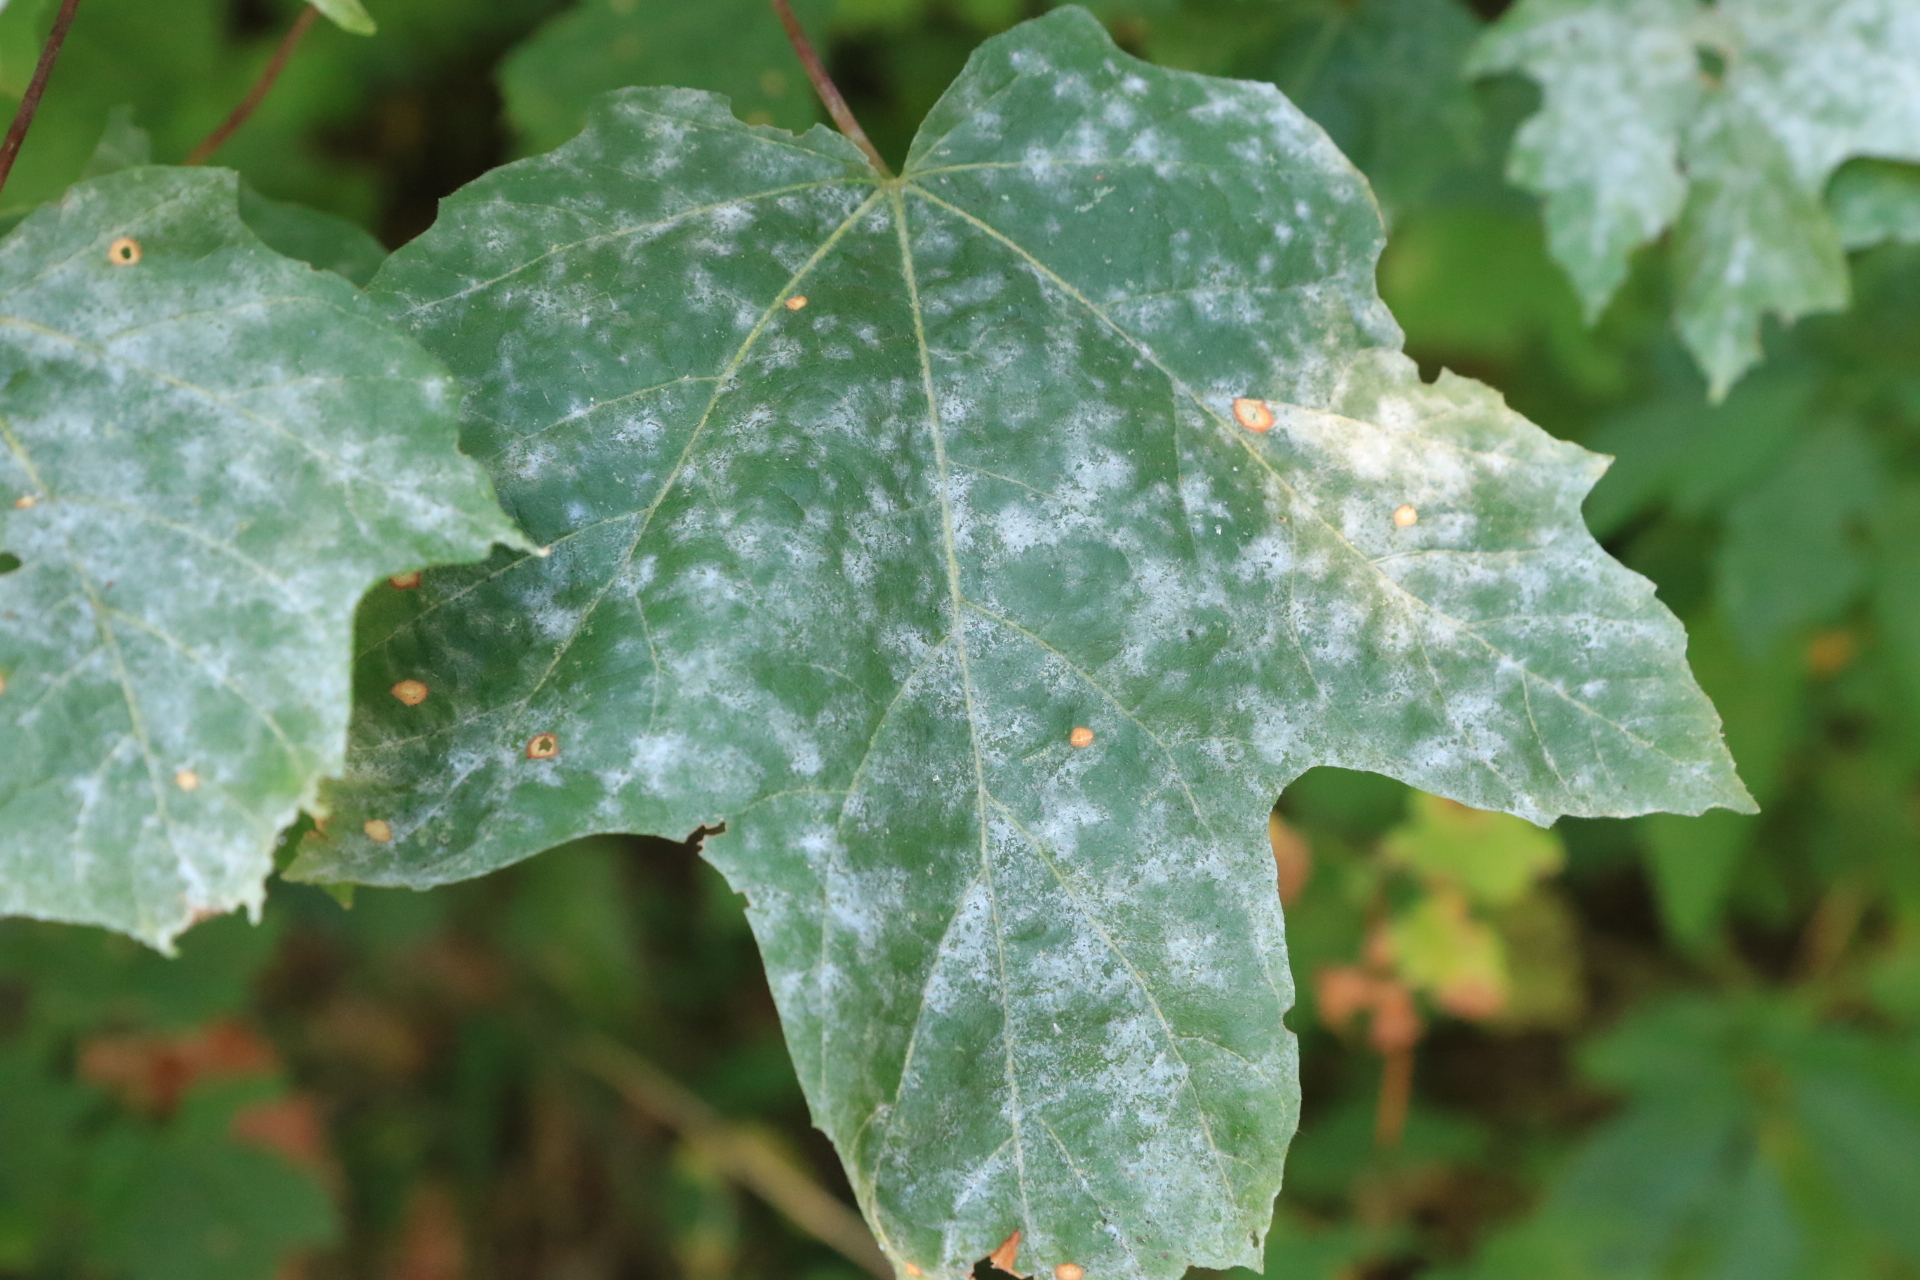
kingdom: Fungi
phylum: Ascomycota
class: Leotiomycetes
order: Helotiales
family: Erysiphaceae
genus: Sawadaea
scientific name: Sawadaea bicornis
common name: Maple mildew
